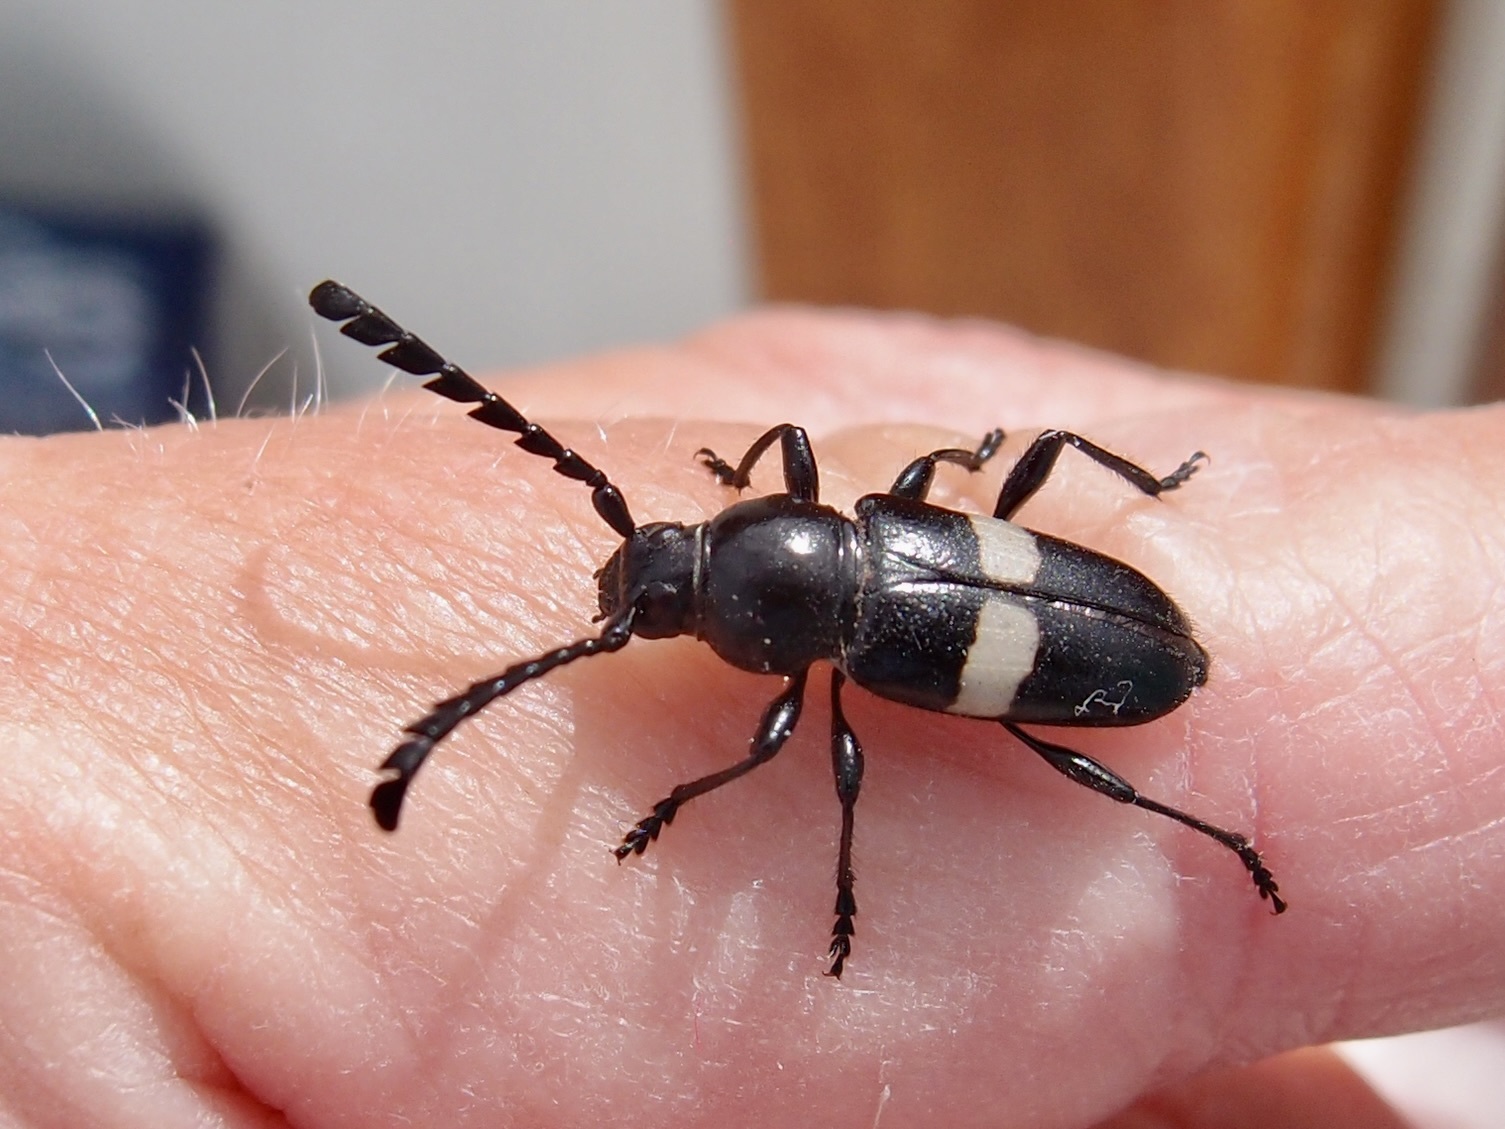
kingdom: Animalia
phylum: Arthropoda
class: Insecta
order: Coleoptera
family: Cerambycidae
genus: Lissonotus
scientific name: Lissonotus flavocinctus
